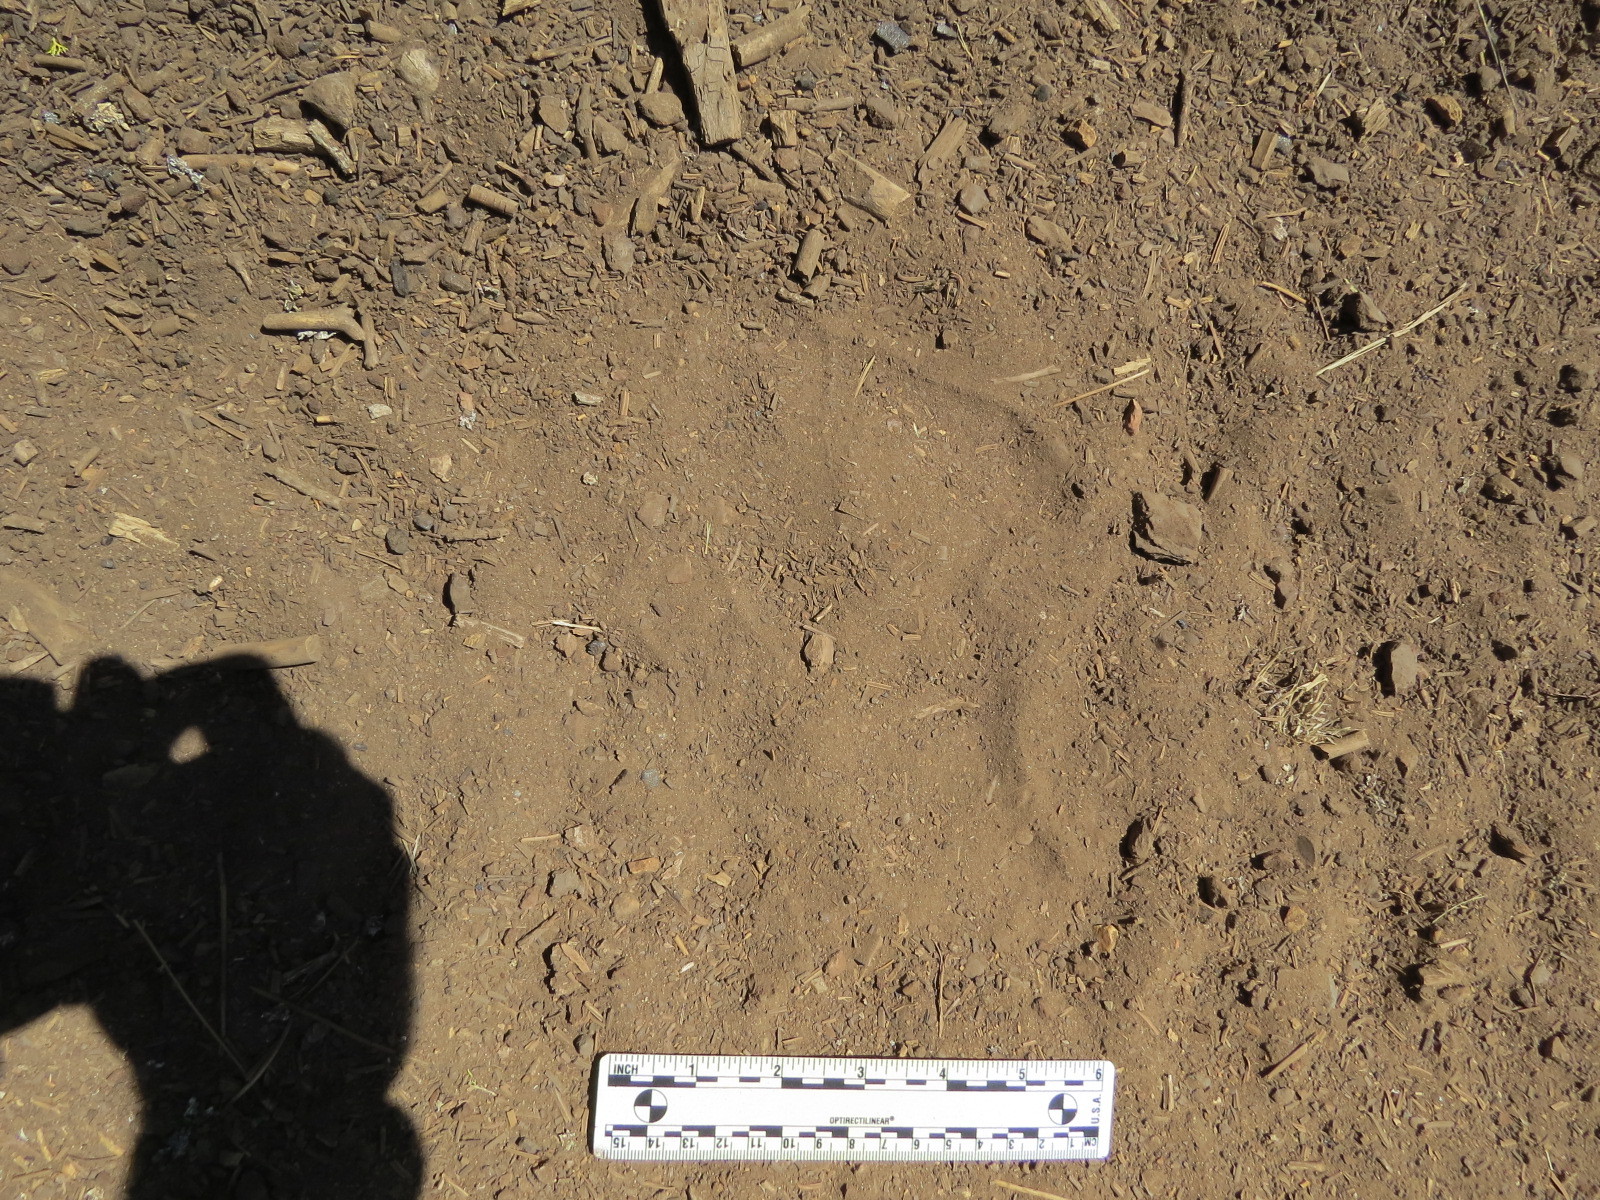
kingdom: Animalia
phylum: Chordata
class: Mammalia
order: Carnivora
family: Ursidae
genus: Ursus
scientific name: Ursus americanus
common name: American black bear
